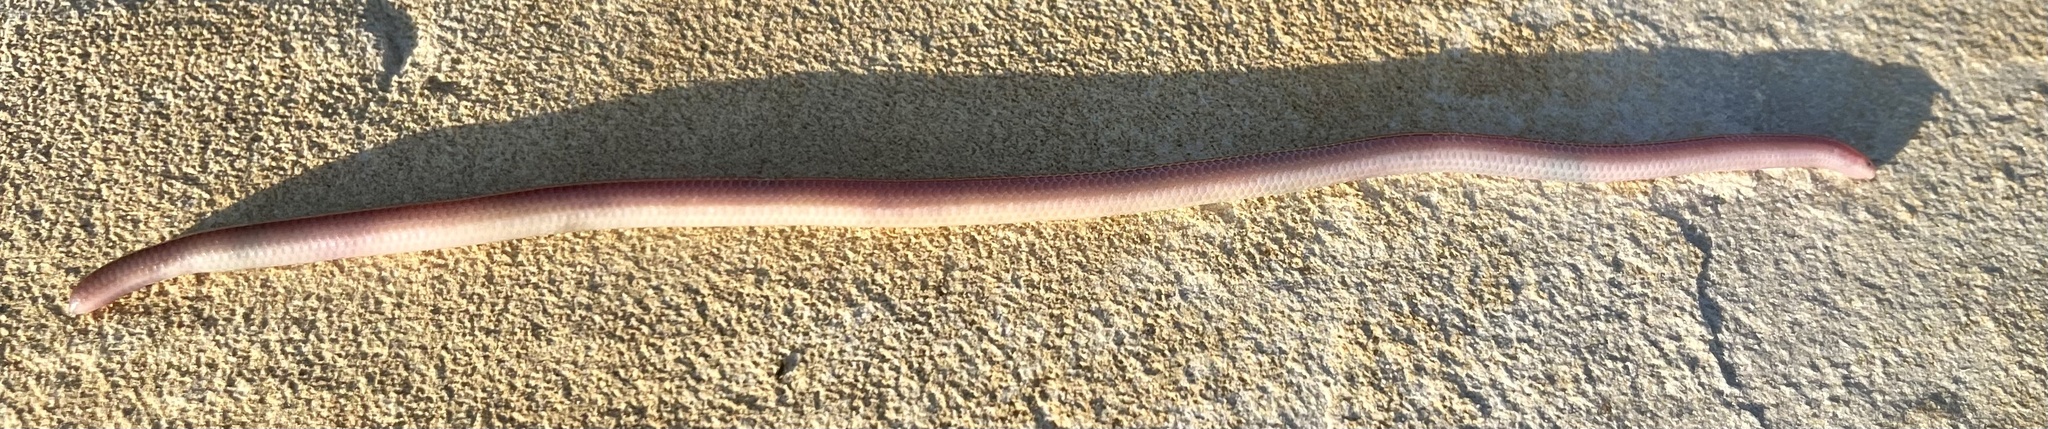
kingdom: Animalia
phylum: Chordata
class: Squamata
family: Leptotyphlopidae
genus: Rena
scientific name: Rena dulcis
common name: Texas blind snake
